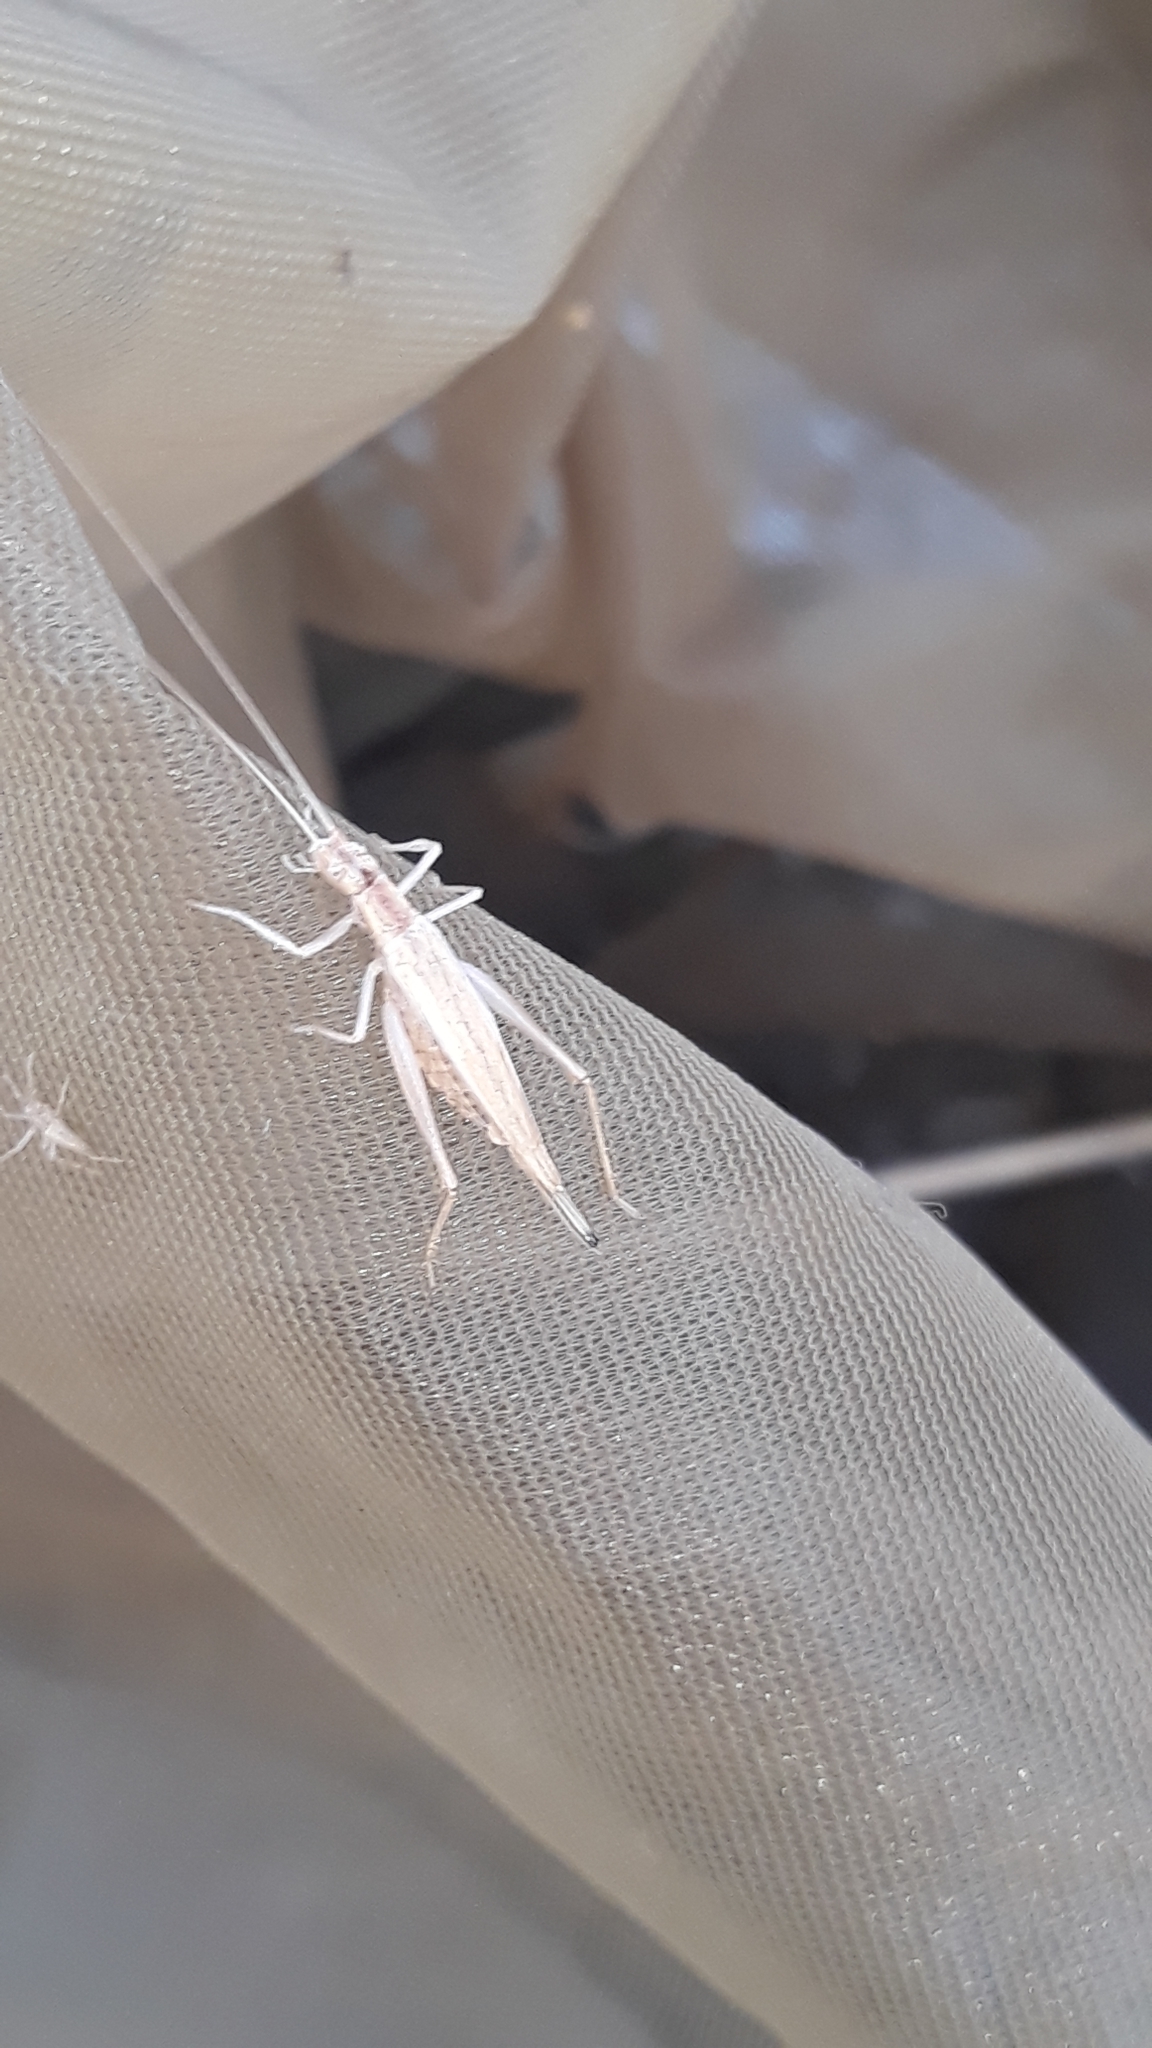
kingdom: Animalia
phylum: Arthropoda
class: Insecta
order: Orthoptera
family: Gryllidae
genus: Oecanthus
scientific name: Oecanthus pellucens
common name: Tree-cricket
